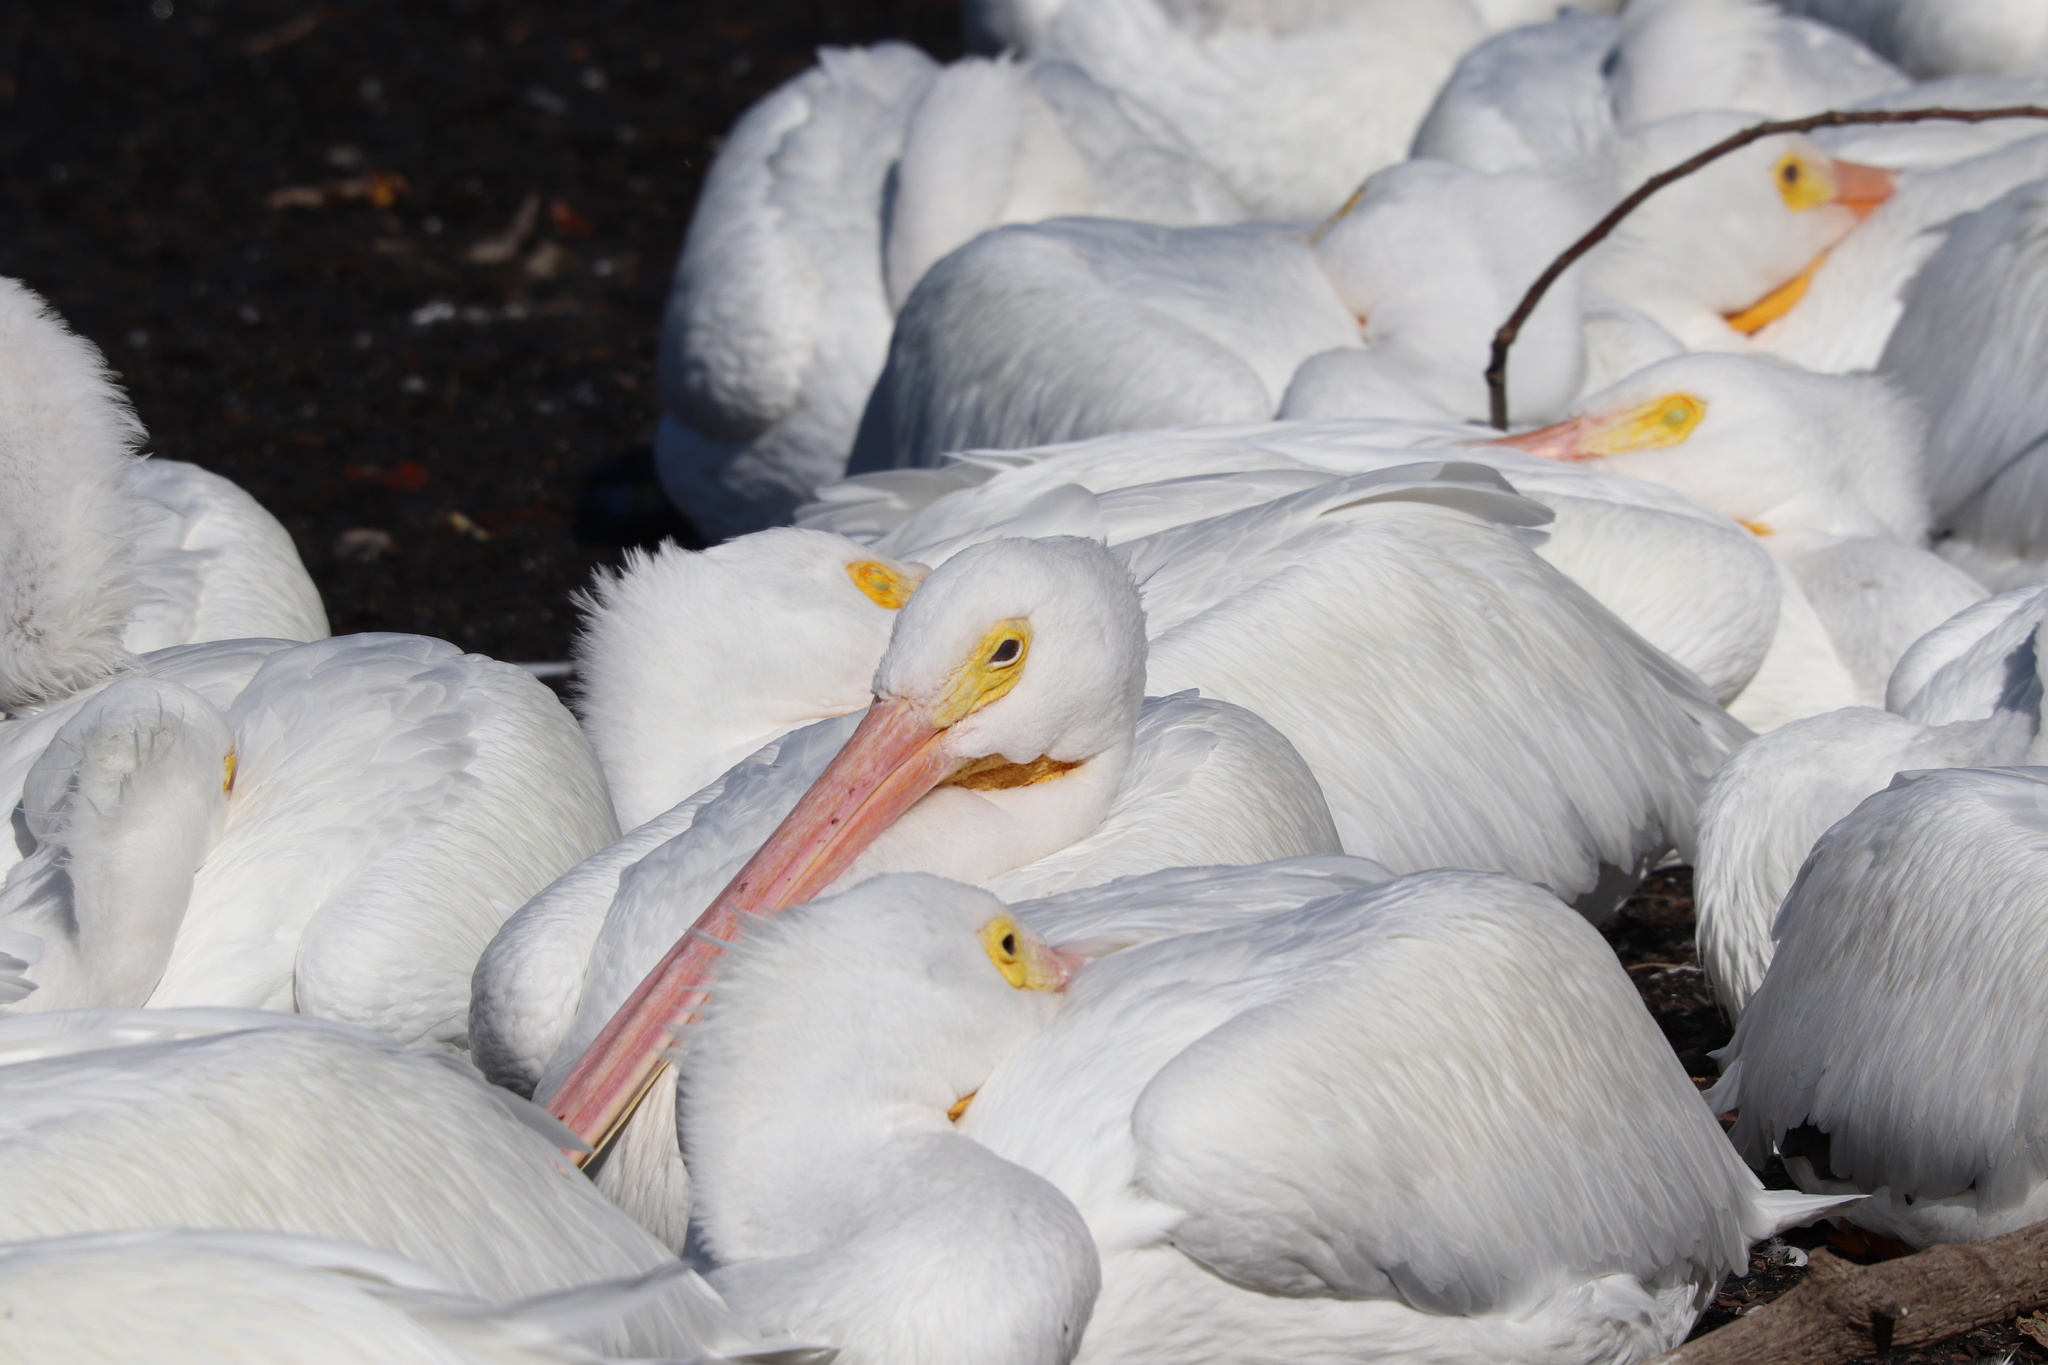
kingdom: Animalia
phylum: Chordata
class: Aves
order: Pelecaniformes
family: Pelecanidae
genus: Pelecanus
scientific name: Pelecanus erythrorhynchos
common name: American white pelican
